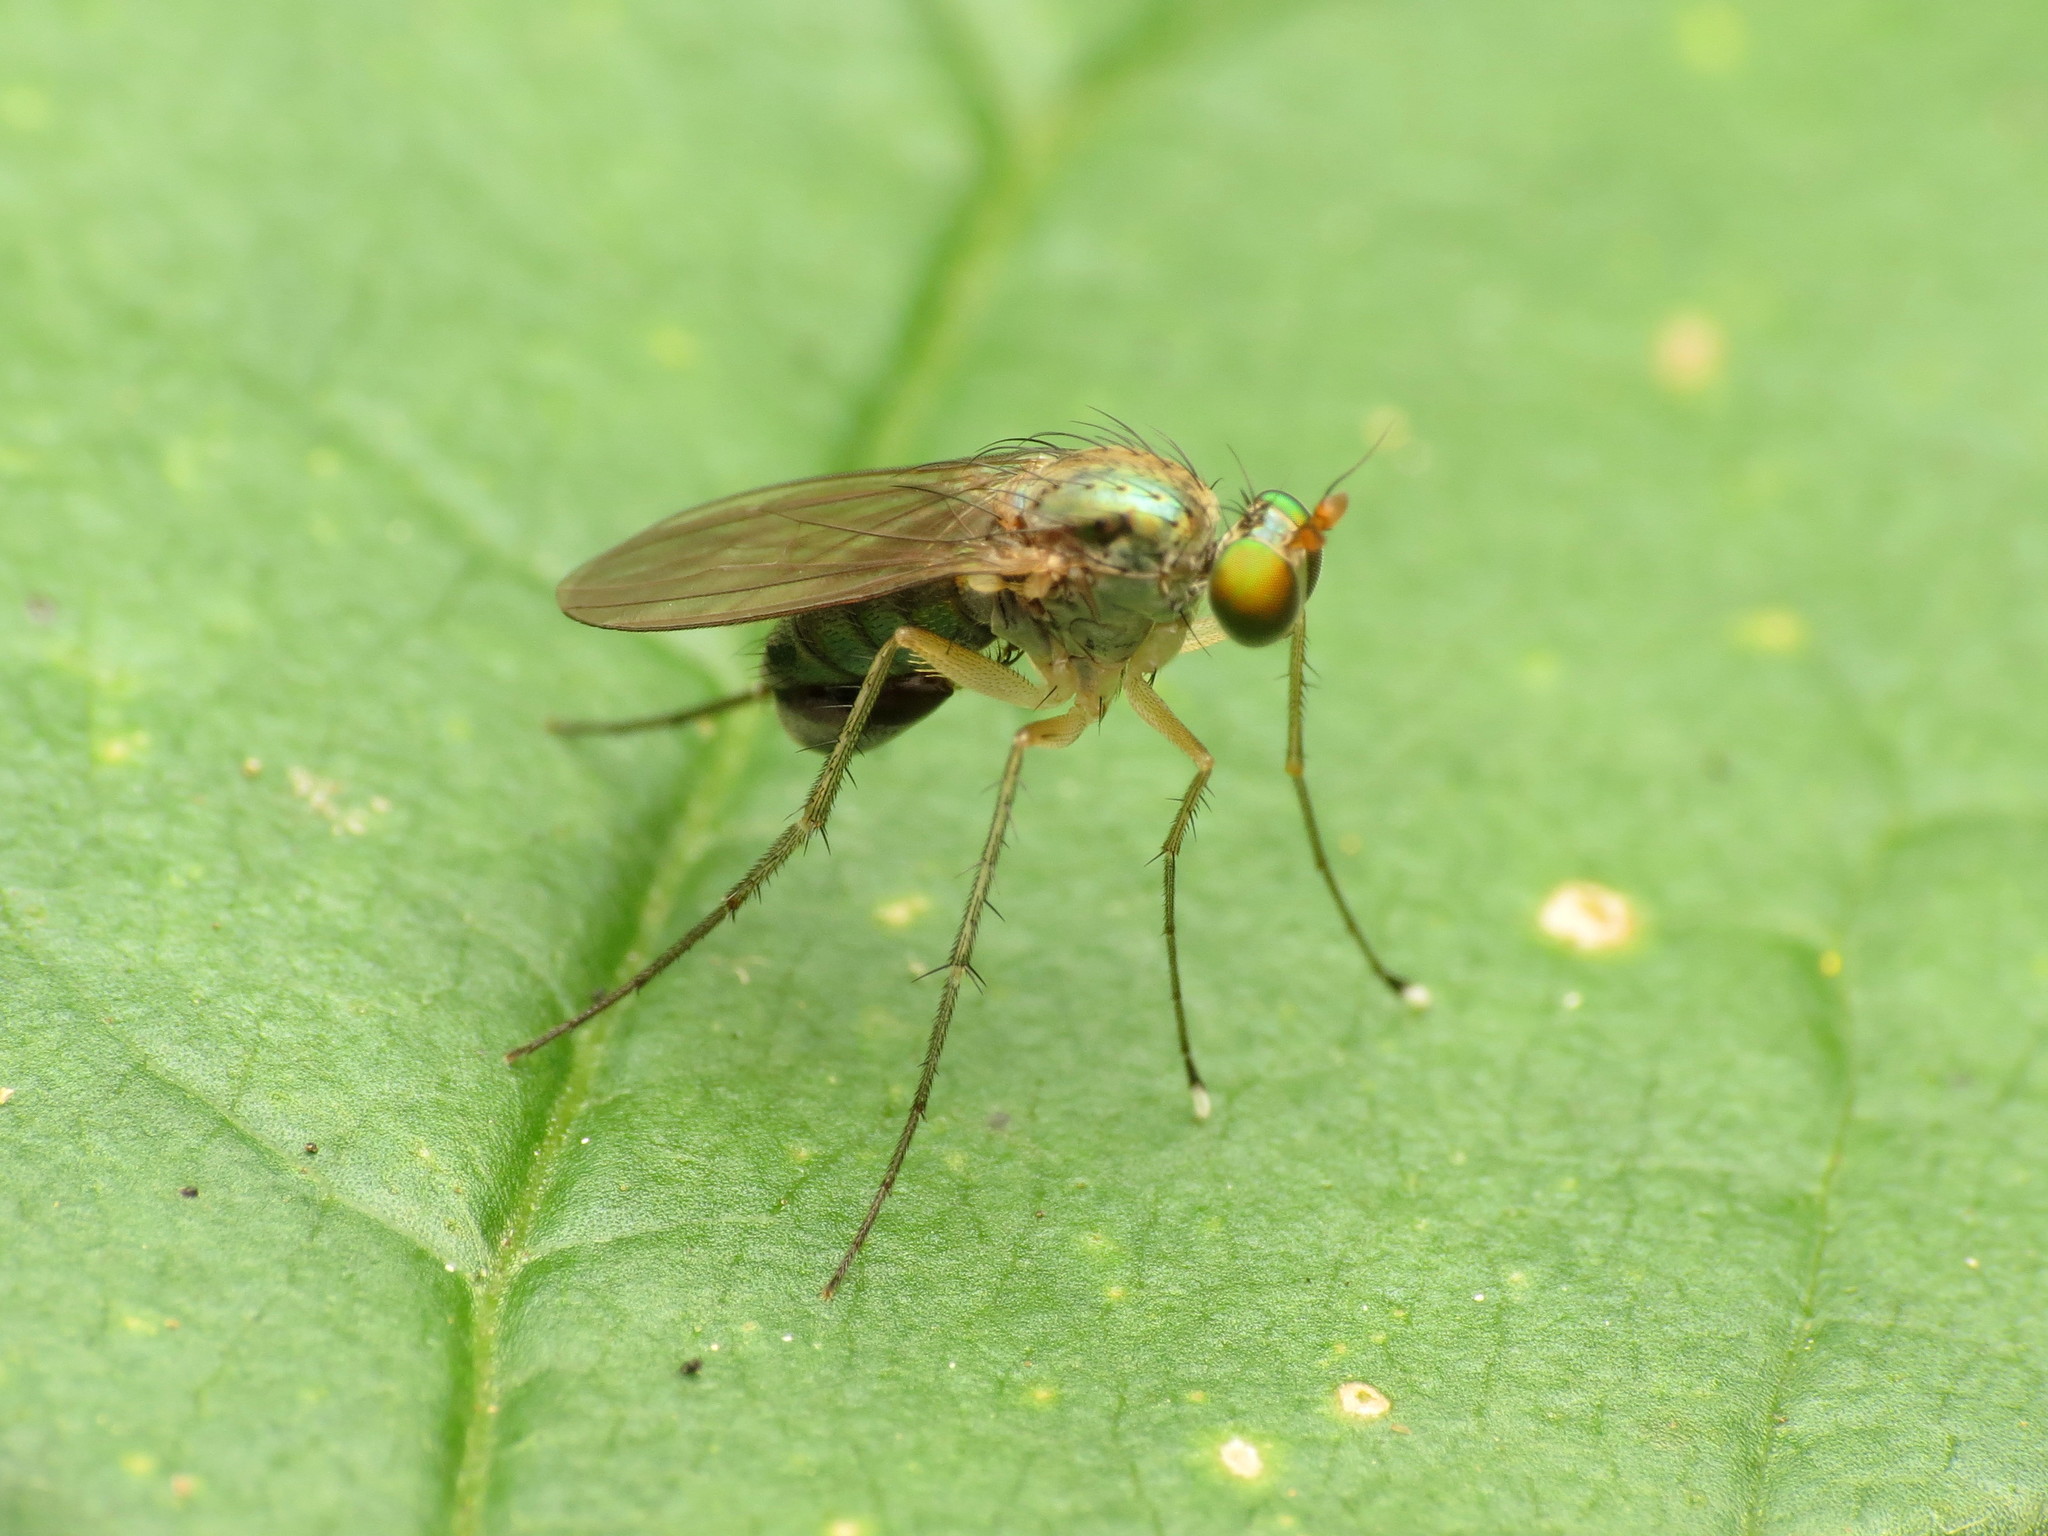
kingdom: Animalia
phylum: Arthropoda
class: Insecta
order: Diptera
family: Dolichopodidae
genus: Dolichopus
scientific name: Dolichopus funditor
